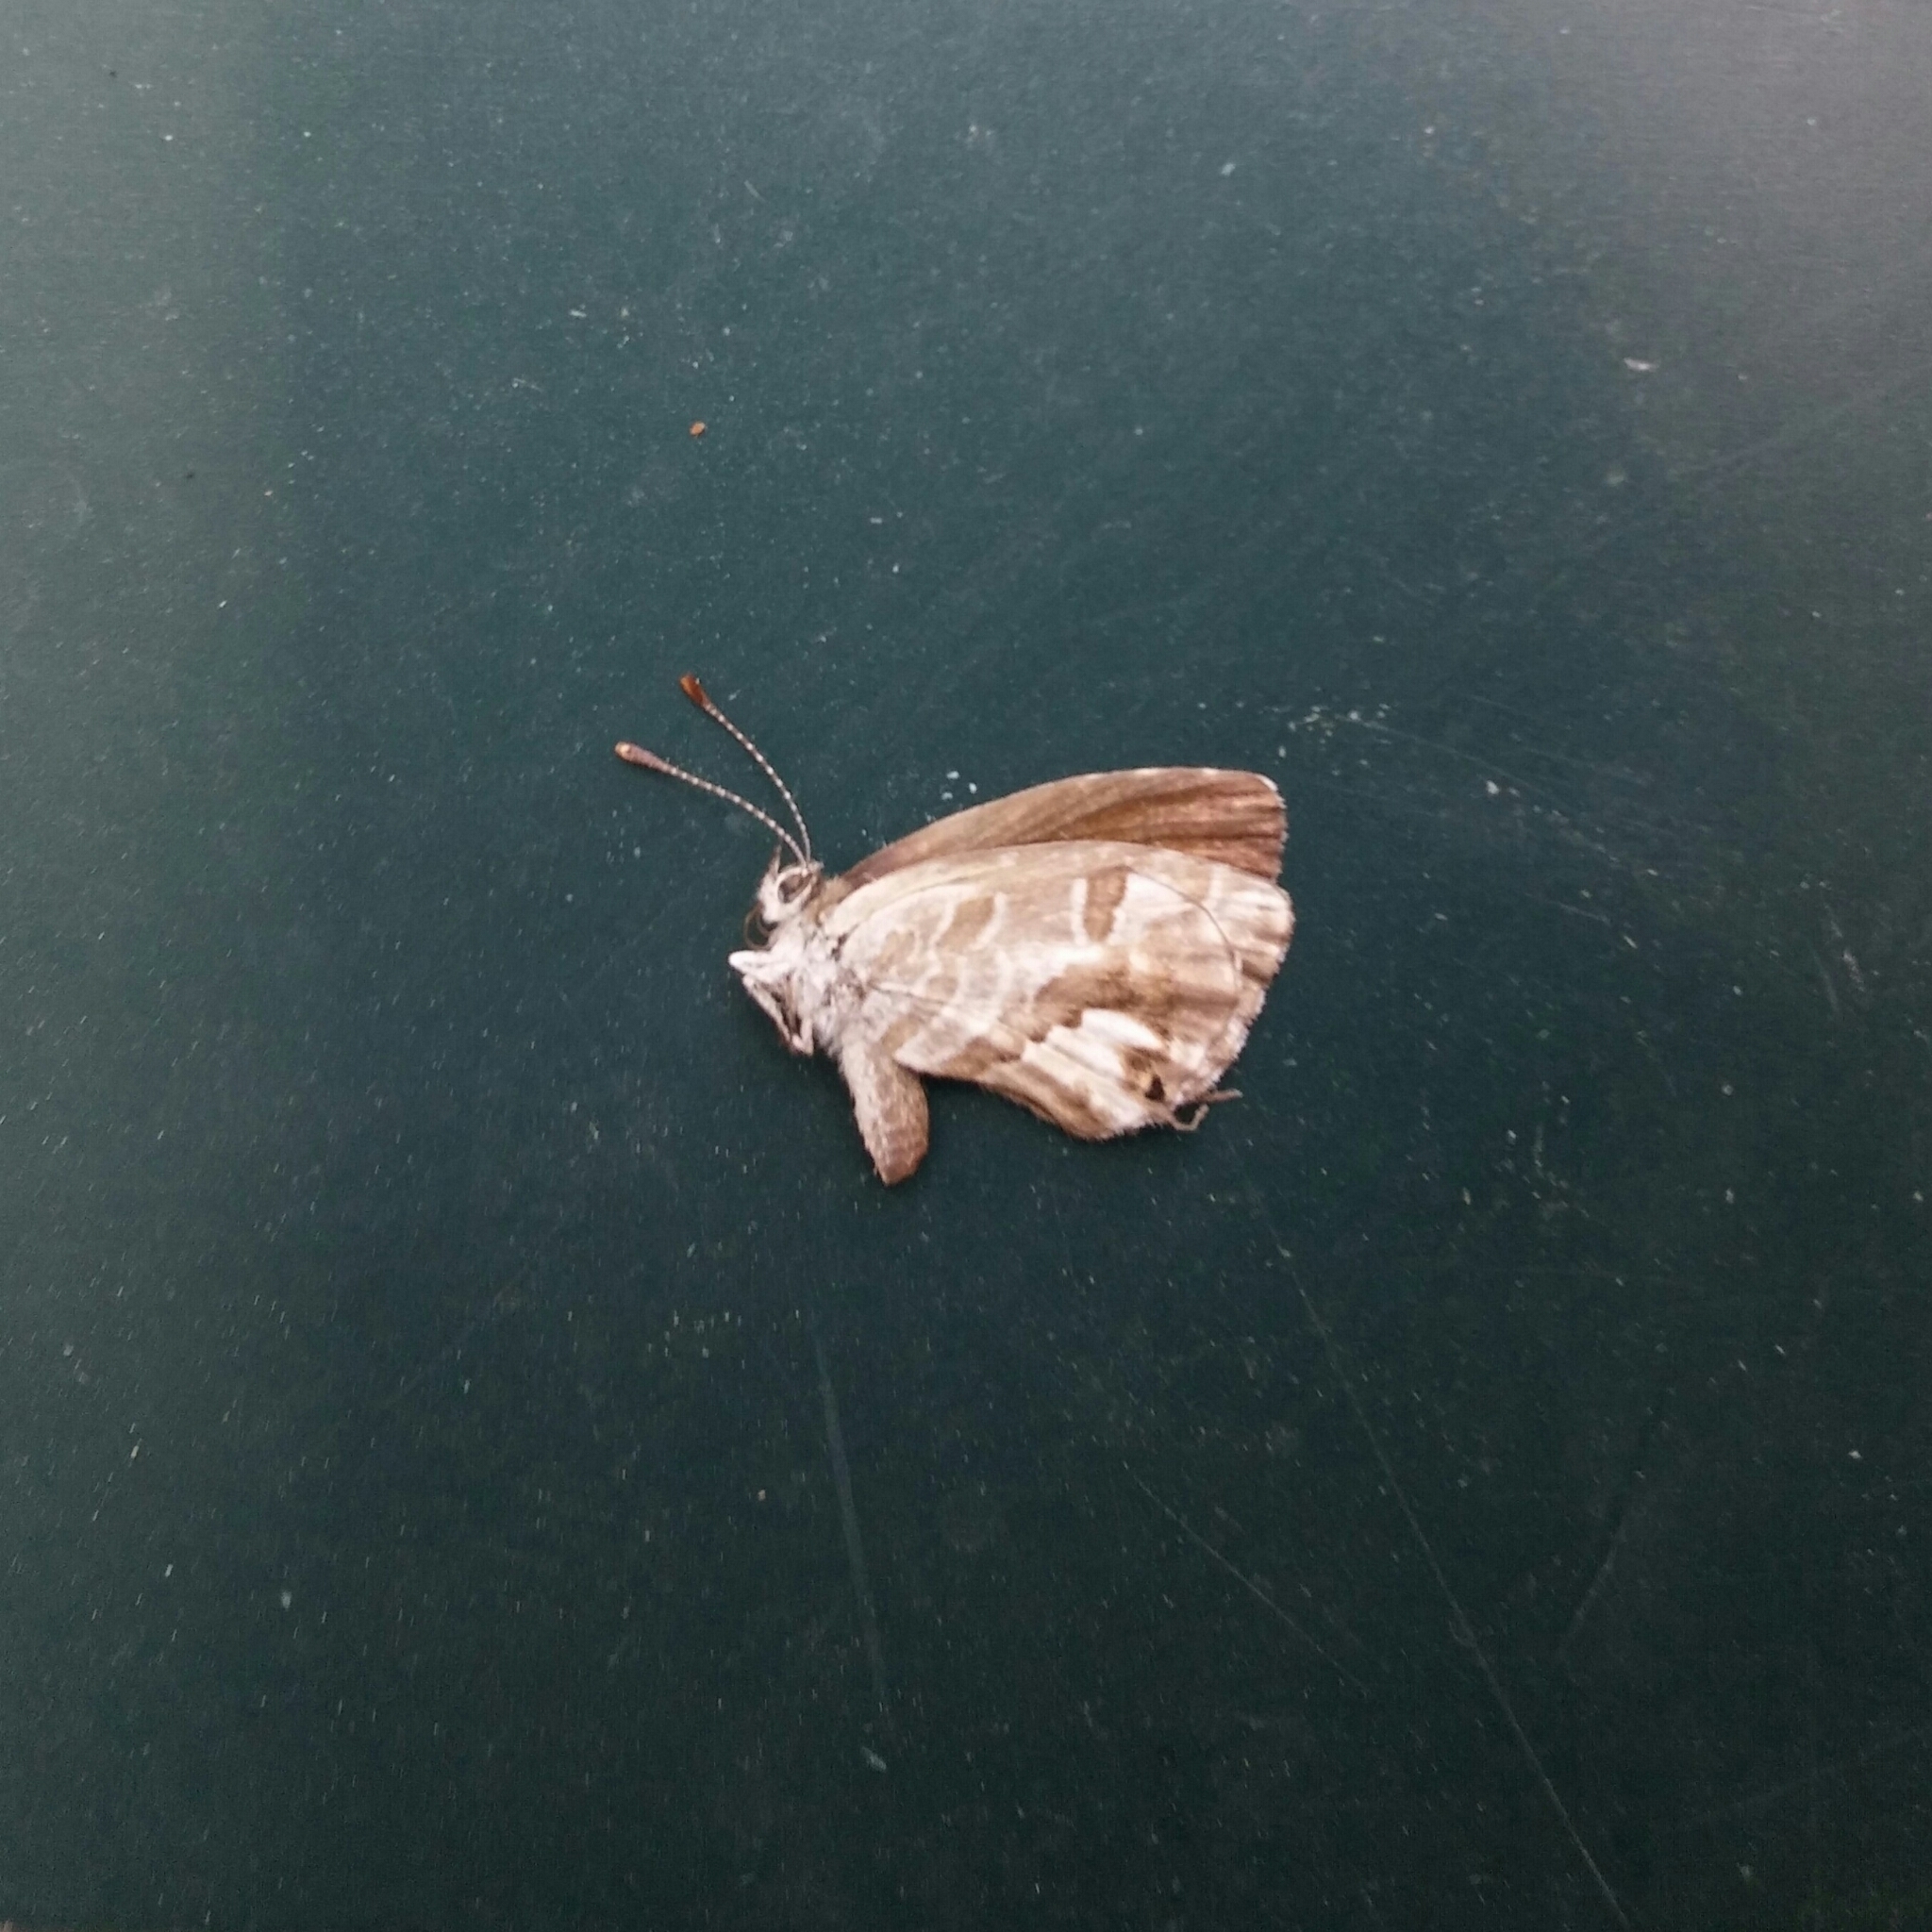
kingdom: Animalia
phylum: Arthropoda
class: Insecta
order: Lepidoptera
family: Lycaenidae
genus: Cacyreus
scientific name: Cacyreus marshalli
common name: Geranium bronze
